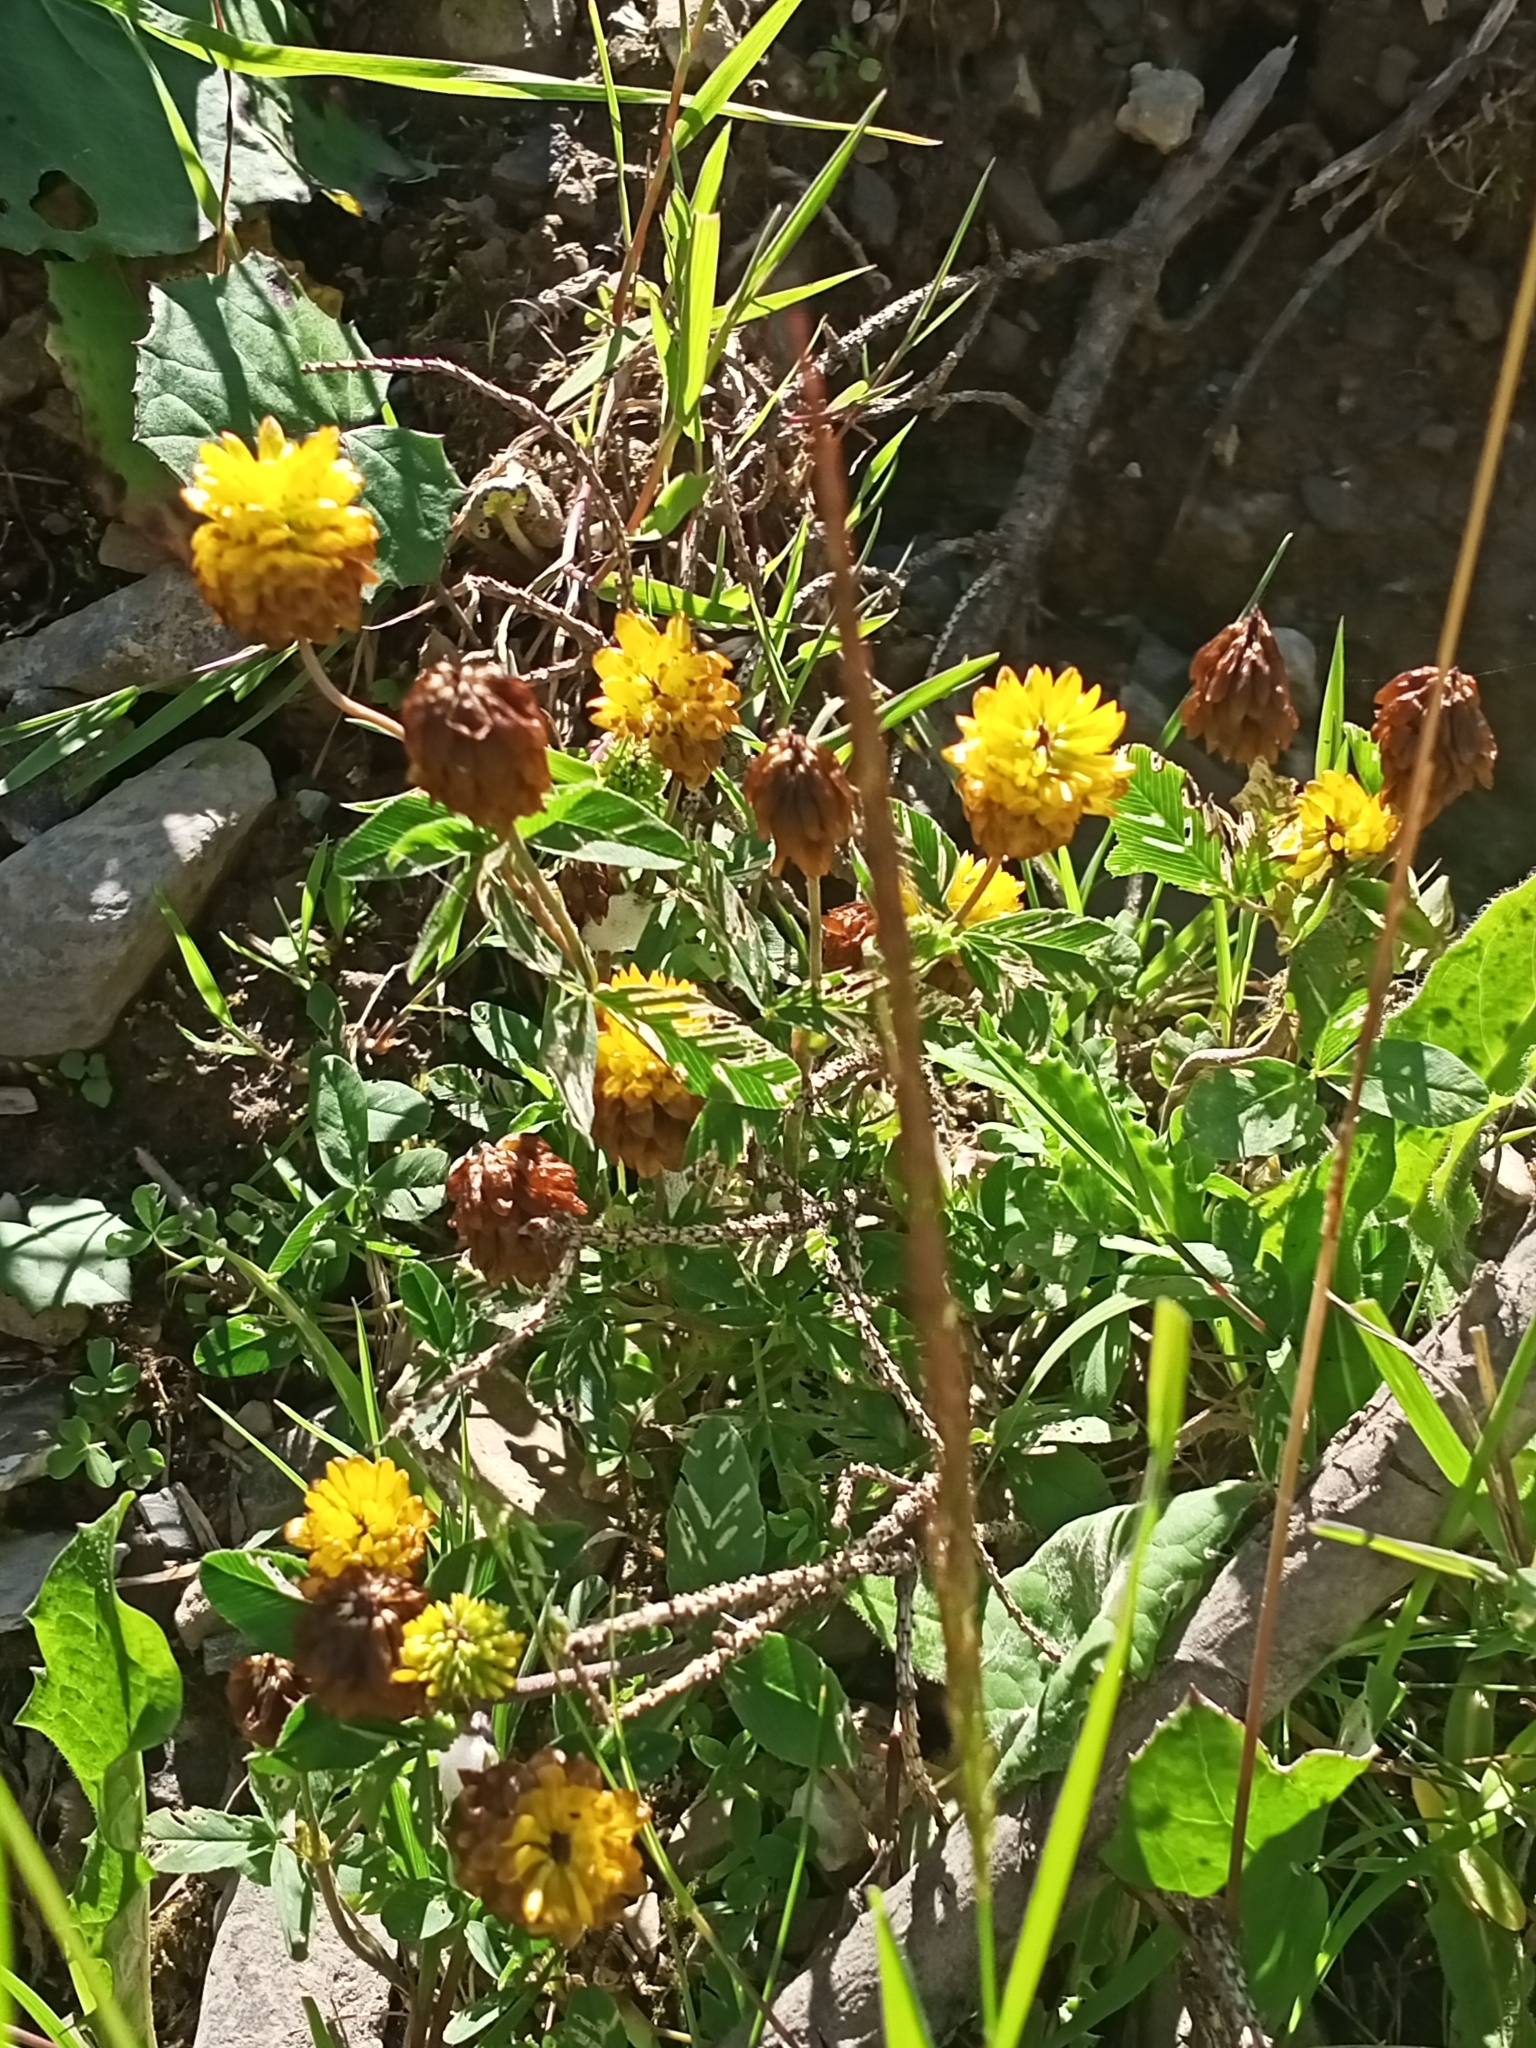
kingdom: Plantae
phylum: Tracheophyta
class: Magnoliopsida
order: Fabales
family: Fabaceae
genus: Trifolium
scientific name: Trifolium badium
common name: Brown clover
